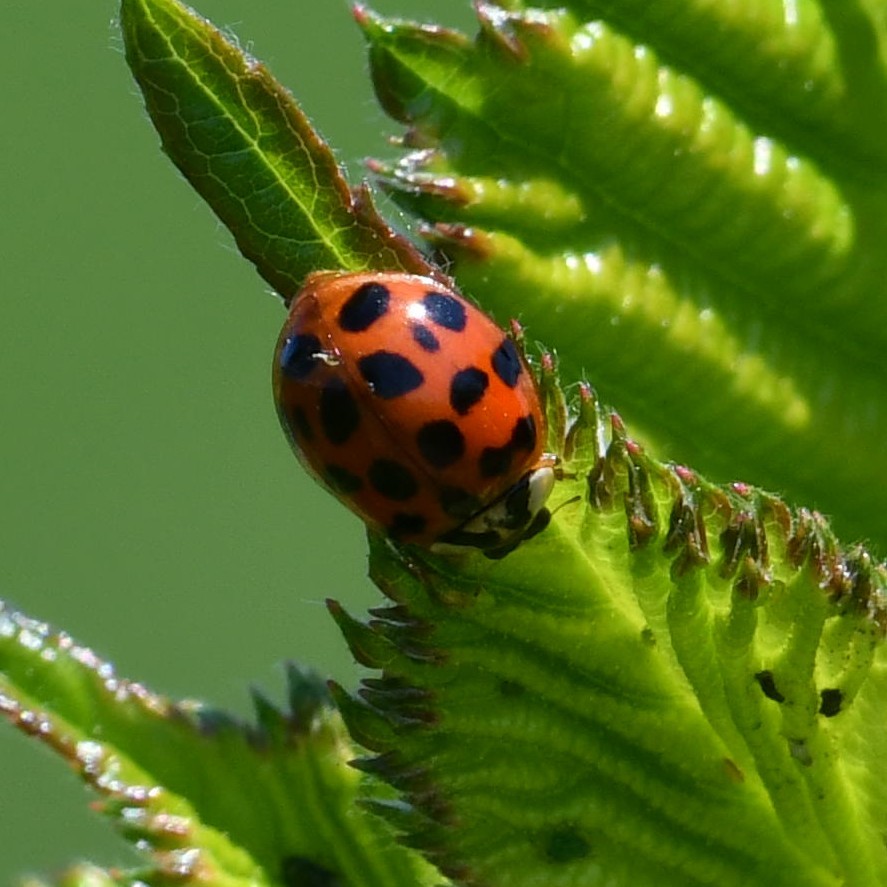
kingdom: Animalia
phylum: Arthropoda
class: Insecta
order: Coleoptera
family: Coccinellidae
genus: Harmonia
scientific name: Harmonia axyridis
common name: Harlequin ladybird
